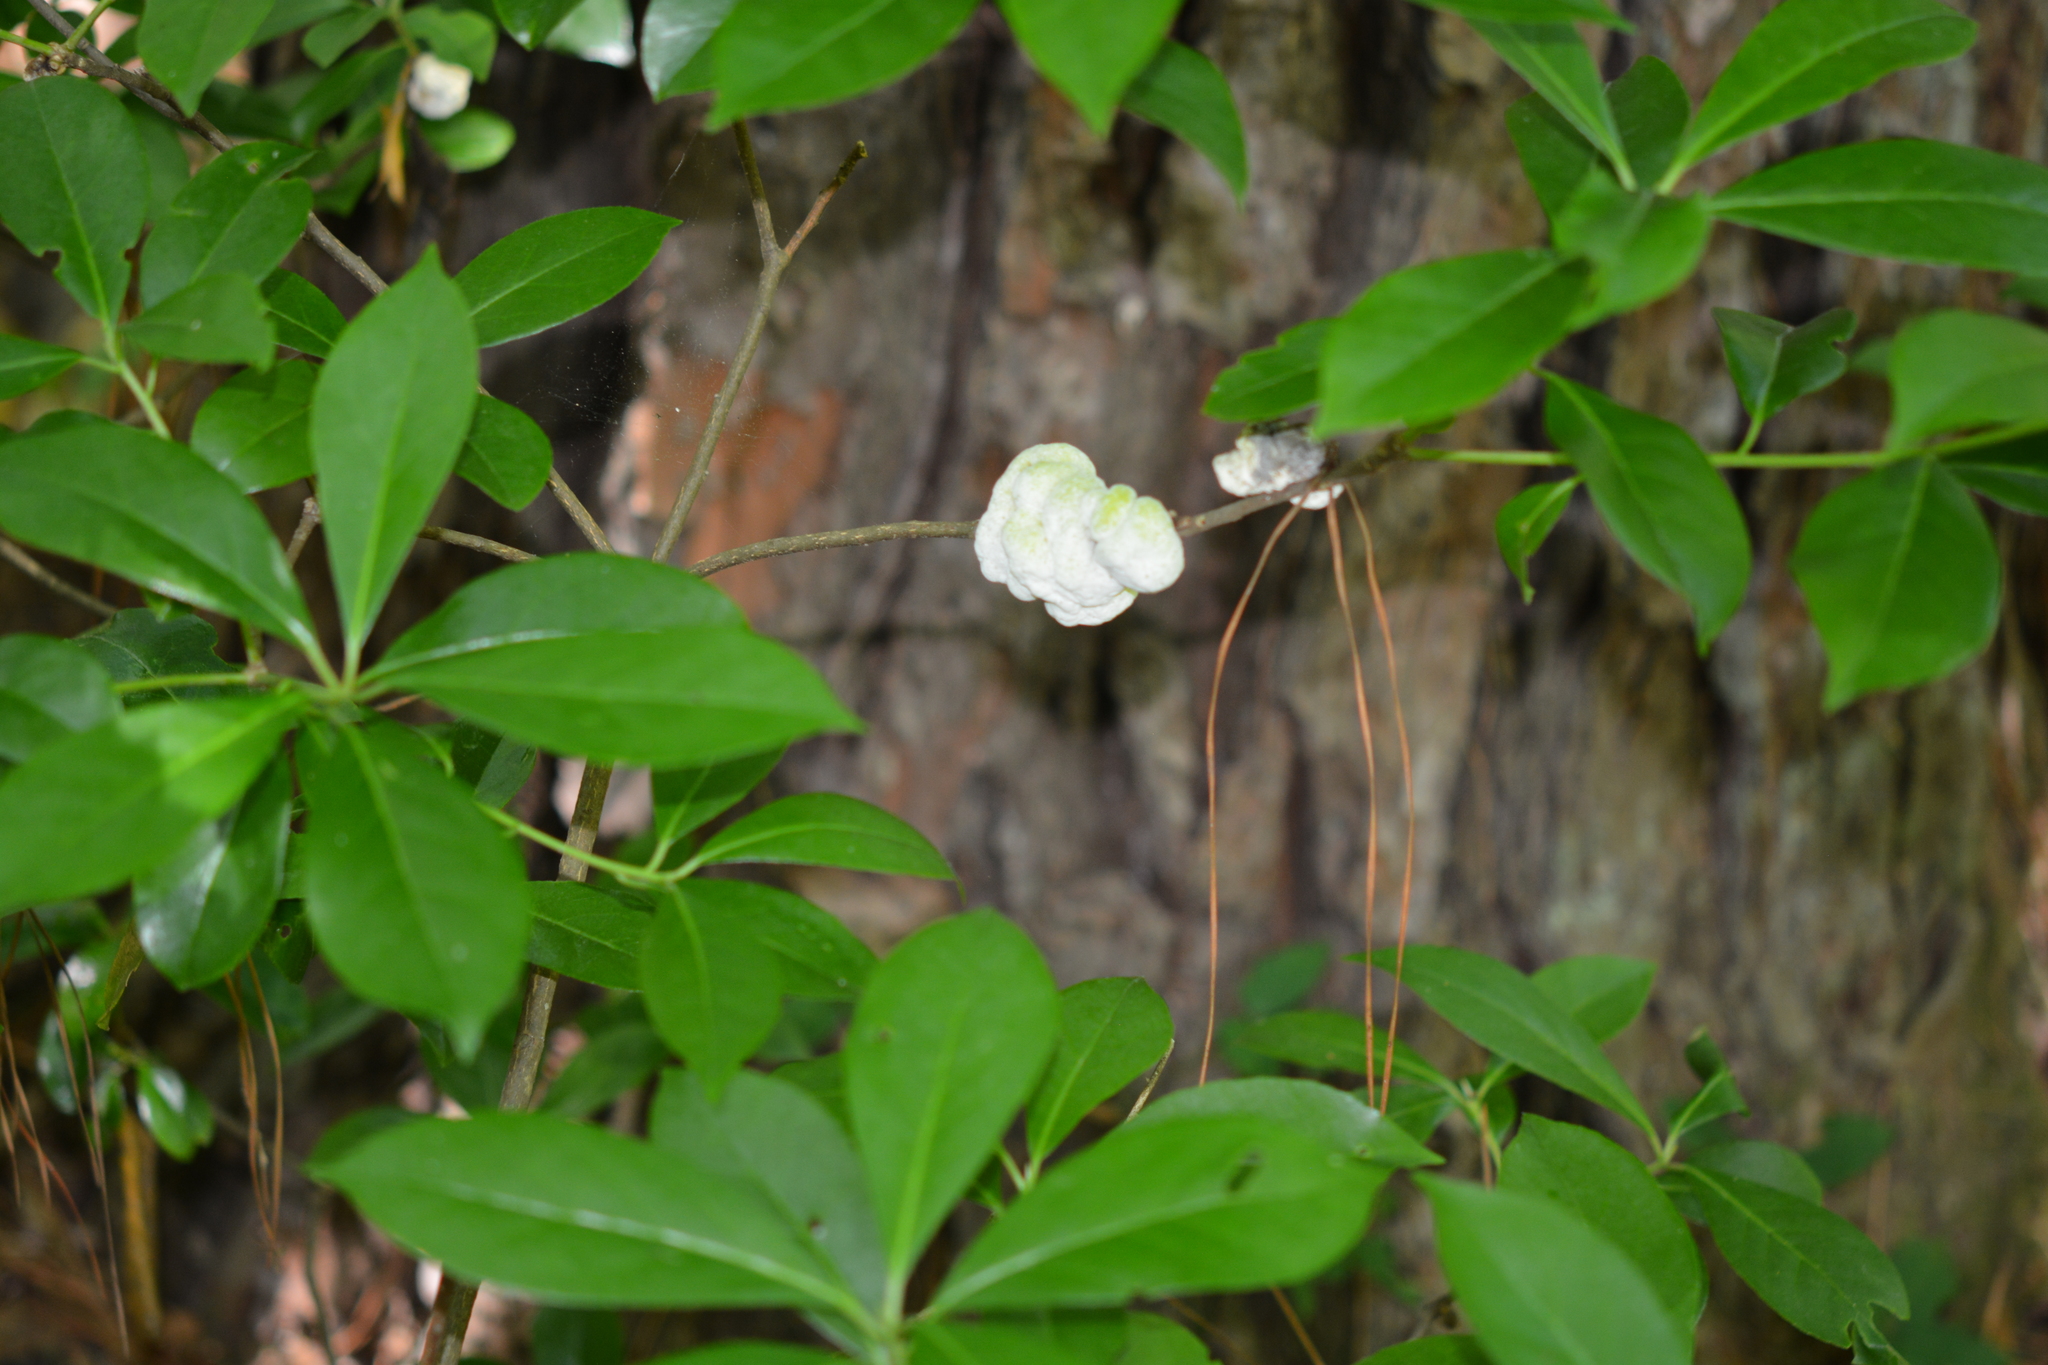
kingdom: Fungi
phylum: Basidiomycota
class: Exobasidiomycetes
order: Exobasidiales
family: Exobasidiaceae
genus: Exobasidium
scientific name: Exobasidium symploci
